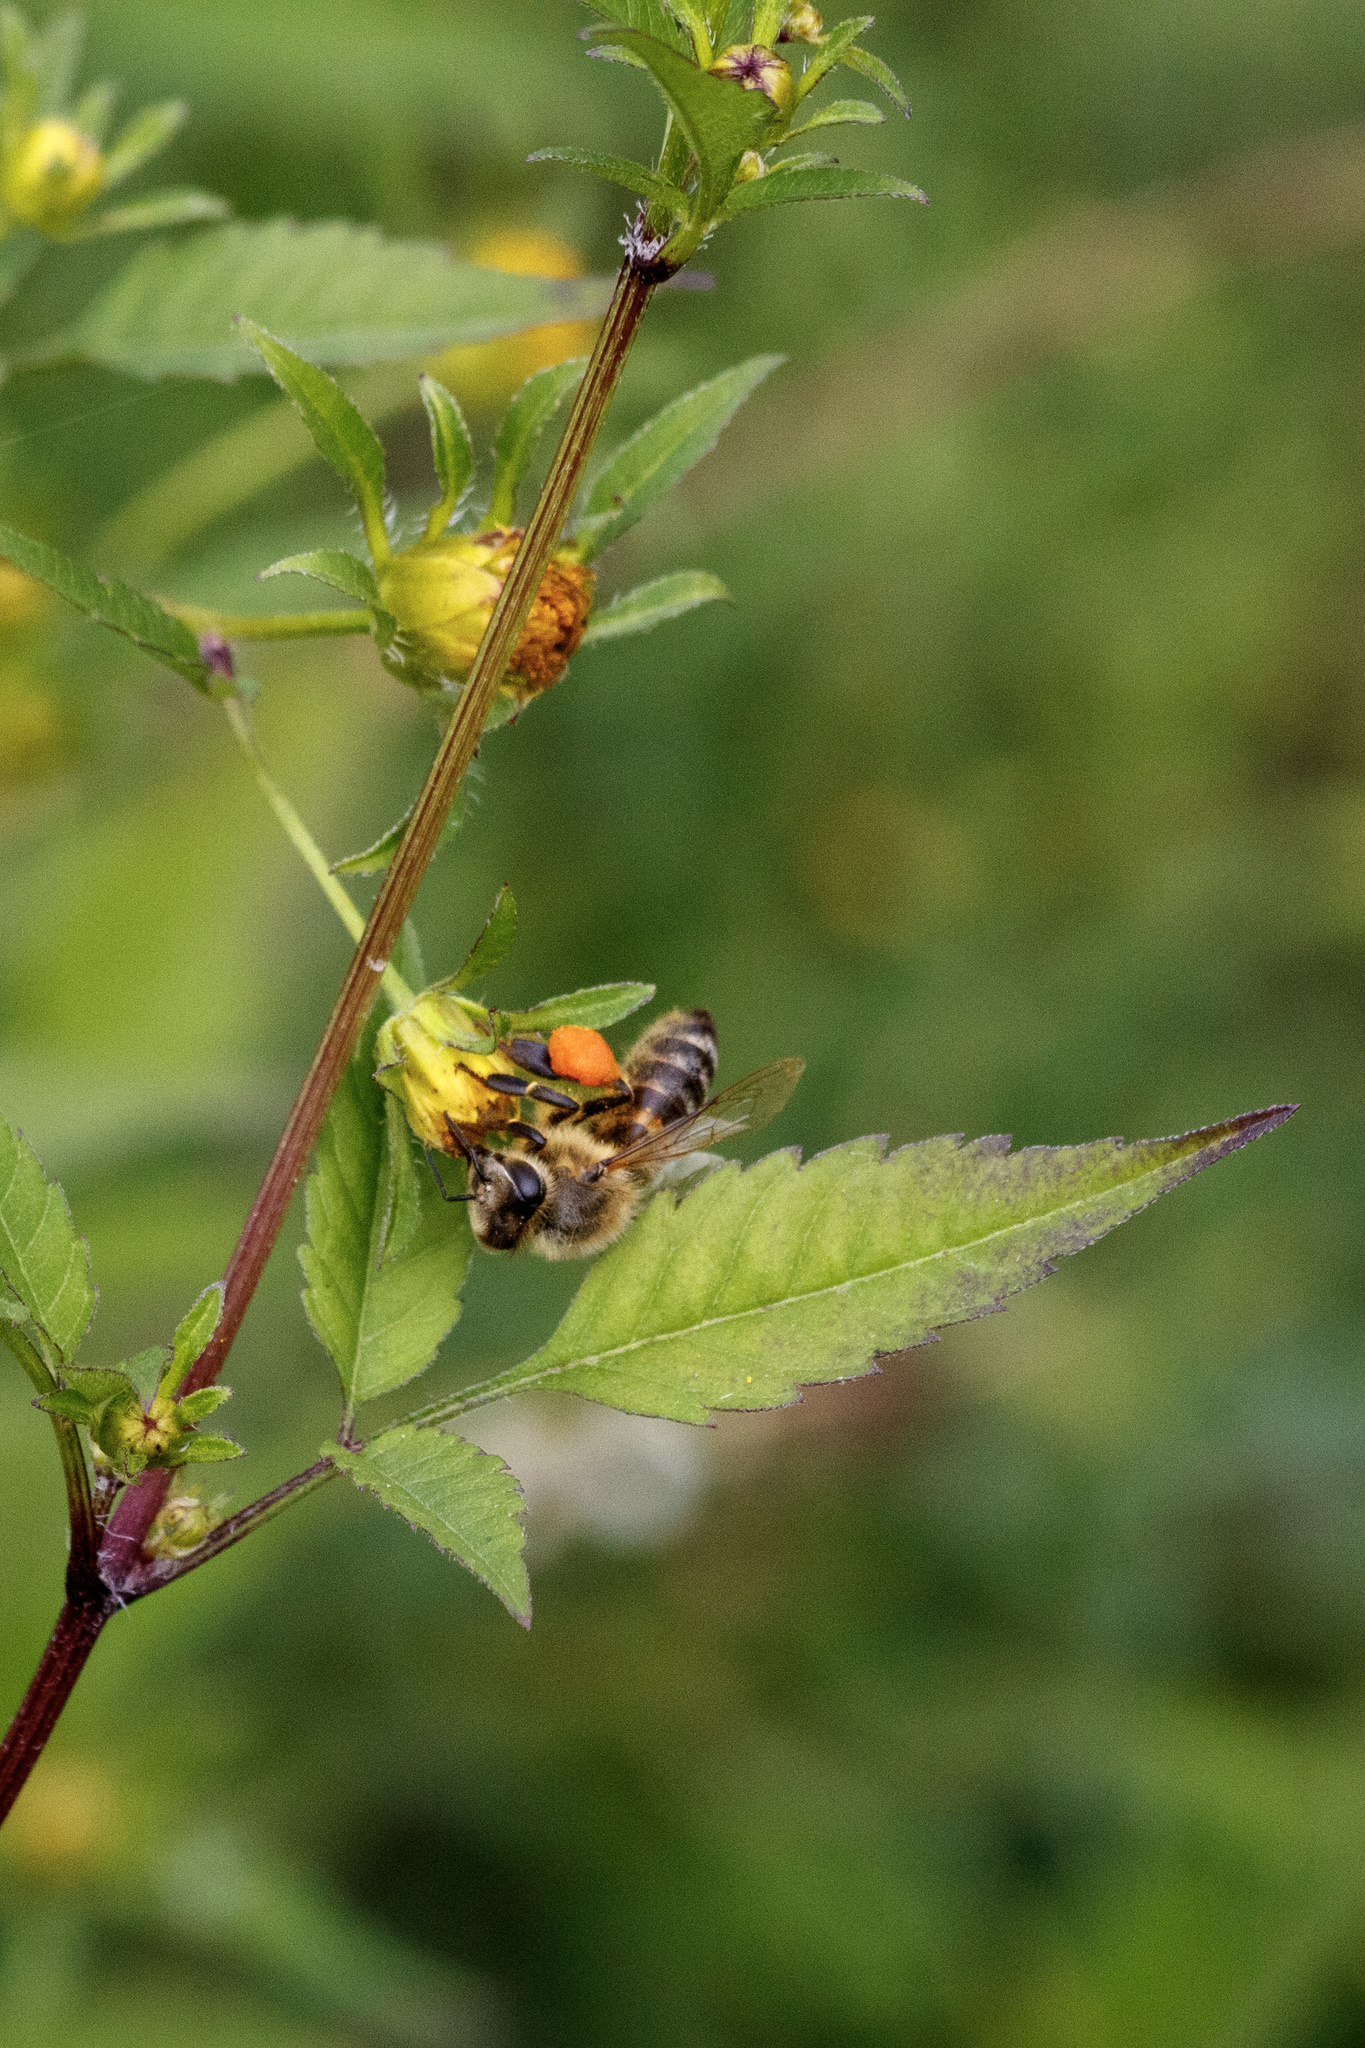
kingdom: Animalia
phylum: Arthropoda
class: Insecta
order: Hymenoptera
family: Apidae
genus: Apis
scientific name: Apis mellifera
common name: Honey bee
